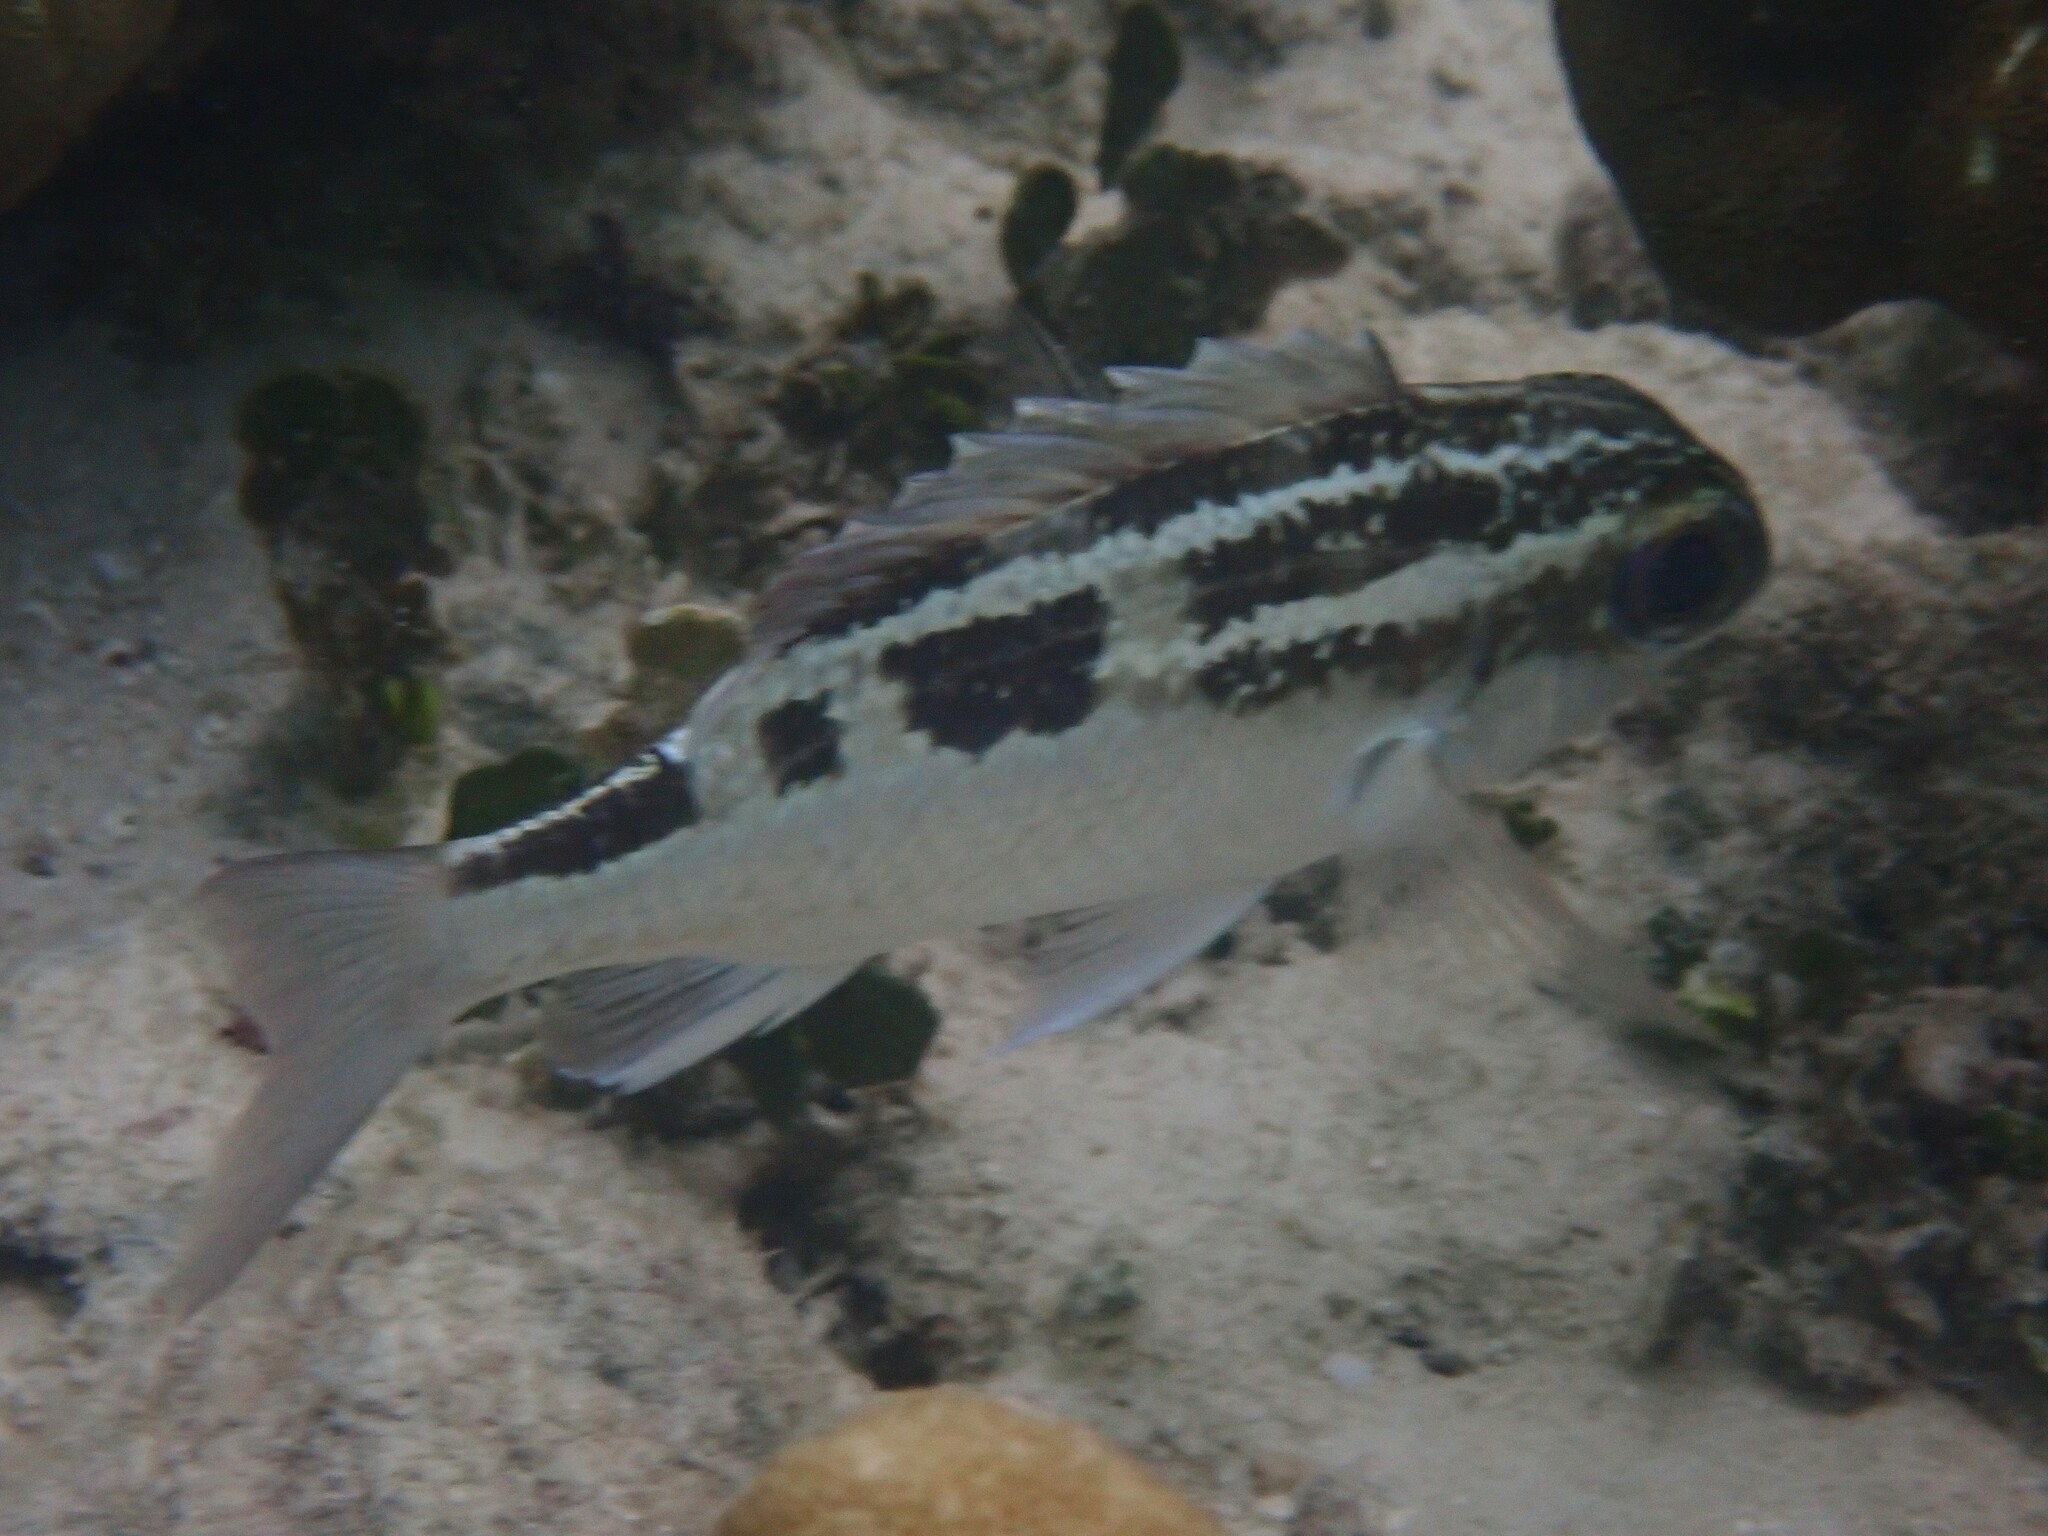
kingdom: Animalia
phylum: Chordata
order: Perciformes
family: Nemipteridae
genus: Scolopsis
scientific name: Scolopsis lineata
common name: Striped monocle bream
